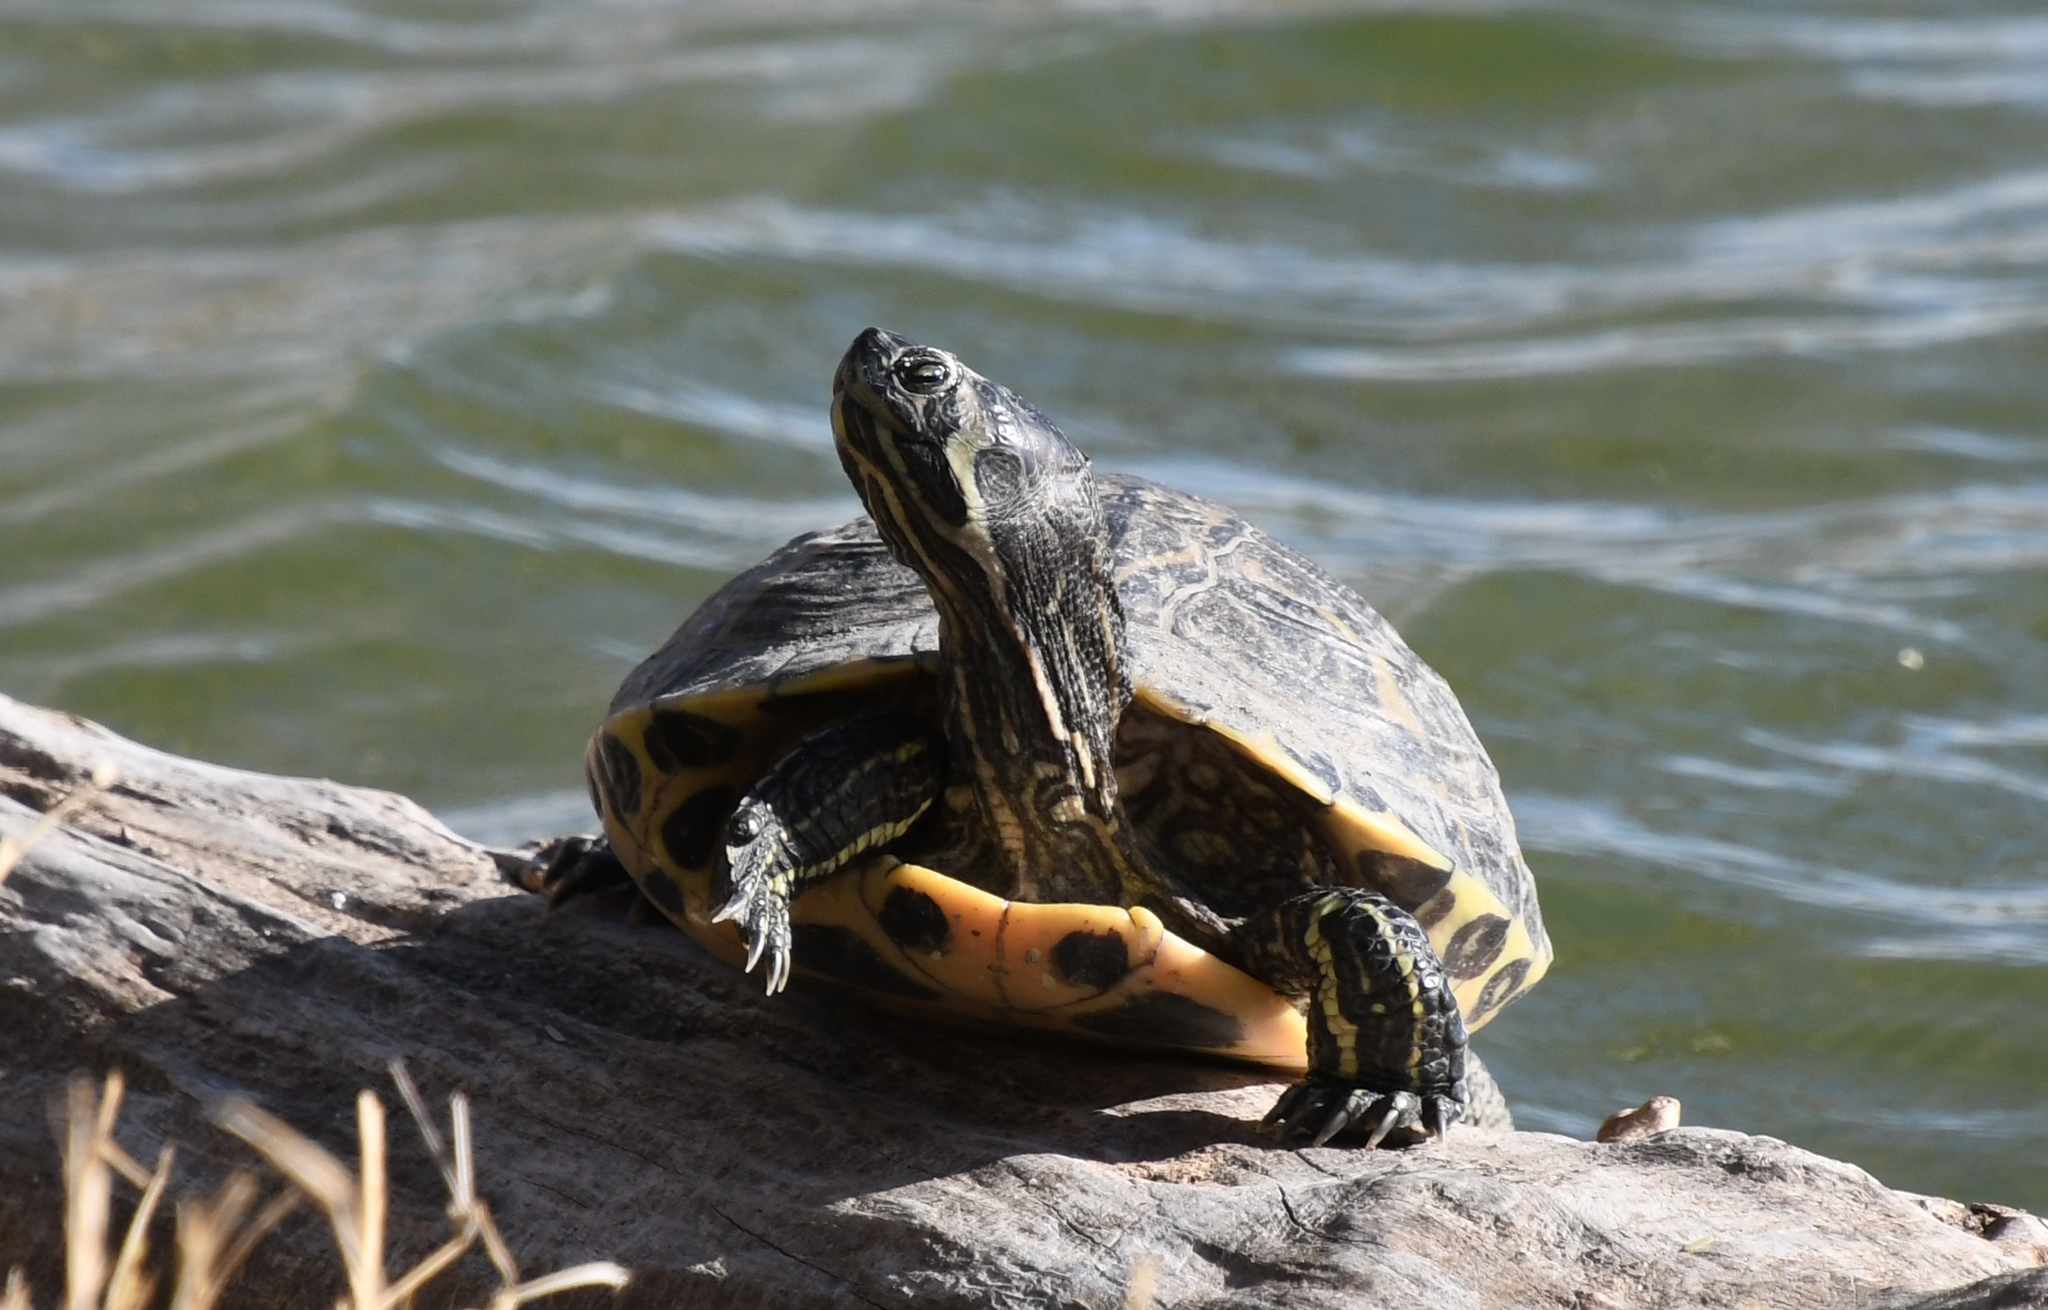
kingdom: Animalia
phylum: Chordata
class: Testudines
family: Emydidae
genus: Trachemys
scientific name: Trachemys scripta
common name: Slider
